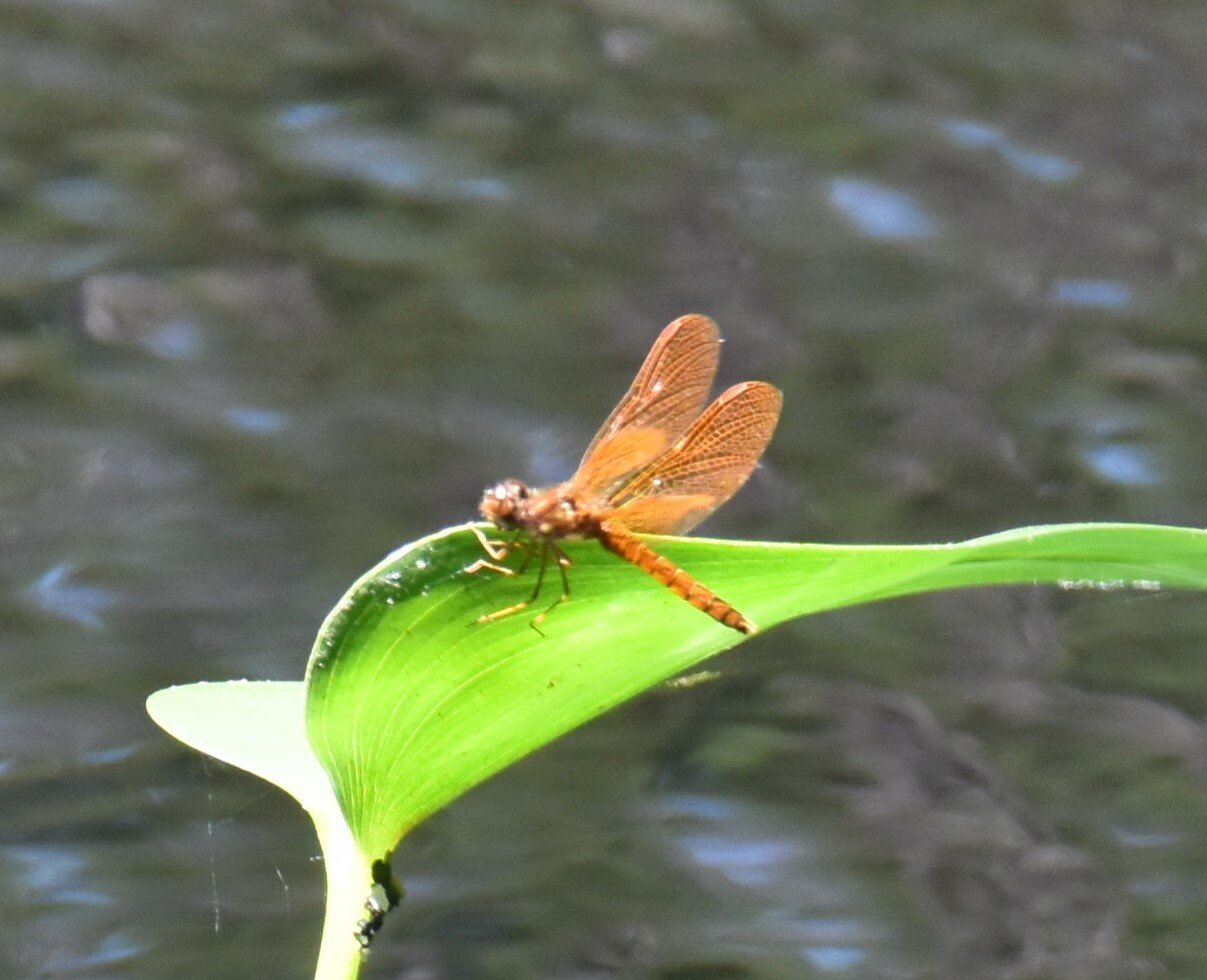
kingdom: Animalia
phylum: Arthropoda
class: Insecta
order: Odonata
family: Libellulidae
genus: Perithemis
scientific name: Perithemis tenera
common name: Eastern amberwing
